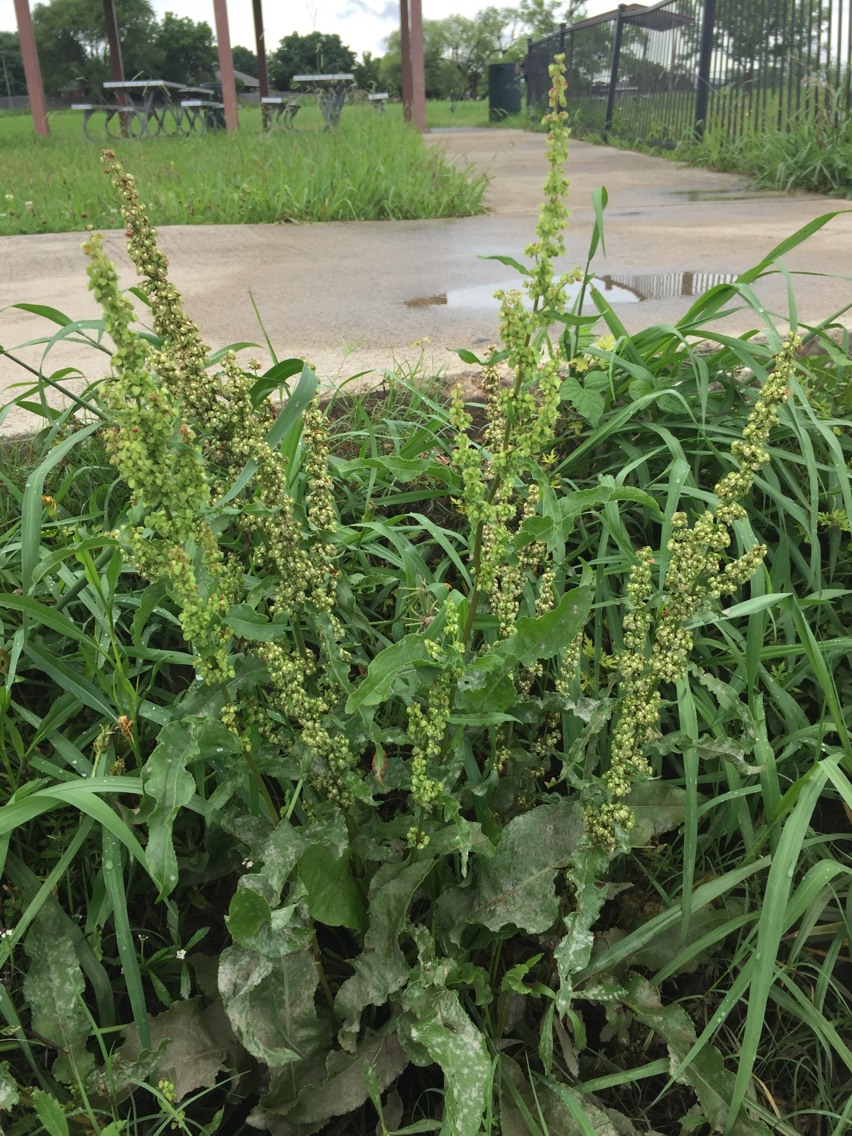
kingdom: Plantae
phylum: Tracheophyta
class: Magnoliopsida
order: Caryophyllales
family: Polygonaceae
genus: Rumex
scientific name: Rumex crispus
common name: Curled dock
